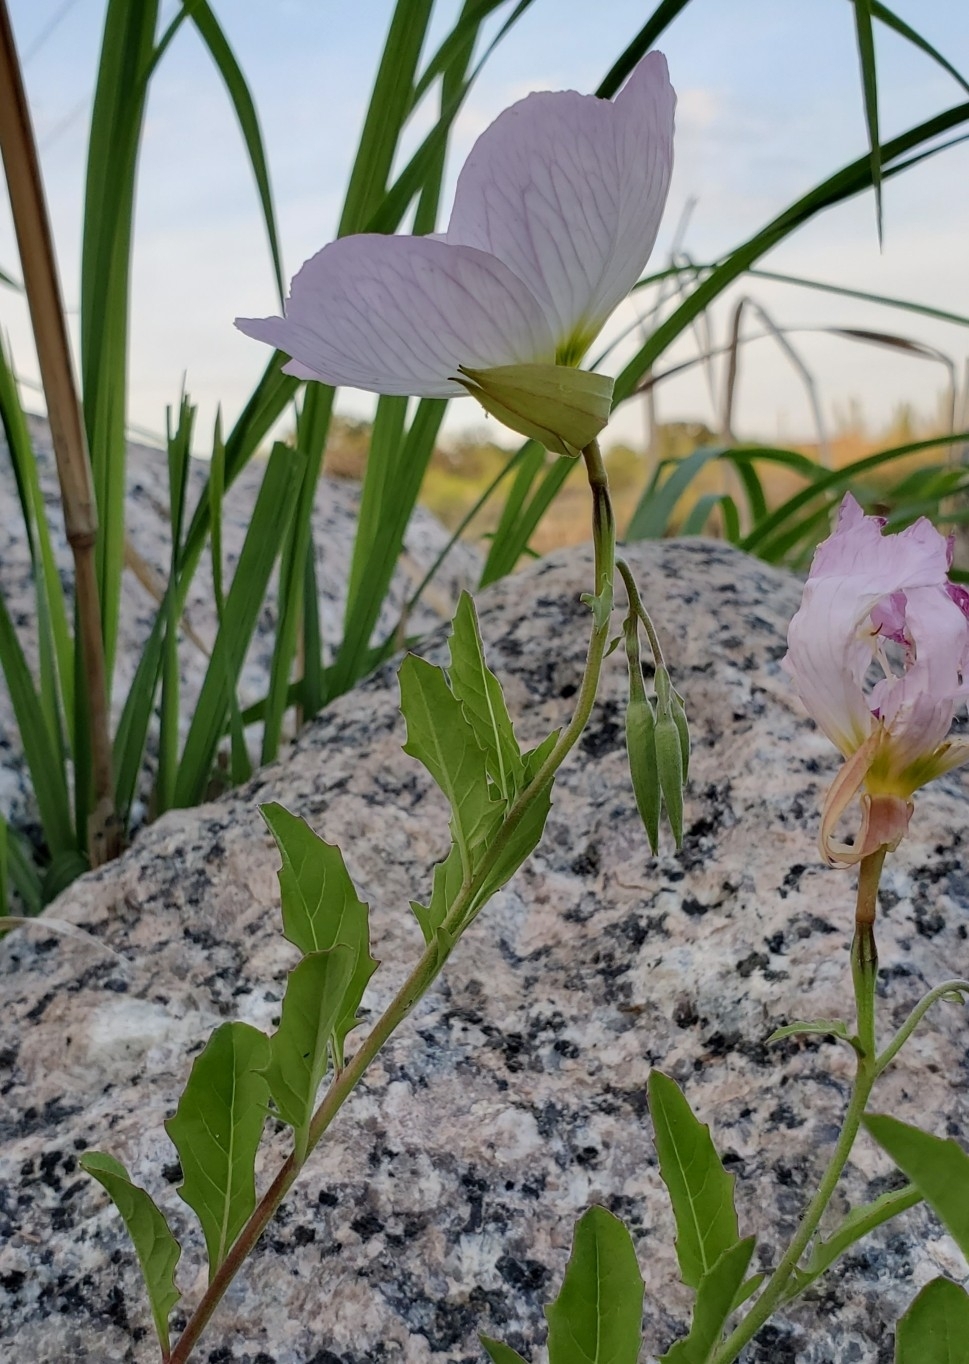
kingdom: Plantae
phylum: Tracheophyta
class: Magnoliopsida
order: Myrtales
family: Onagraceae
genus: Oenothera
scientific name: Oenothera speciosa
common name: White evening-primrose
